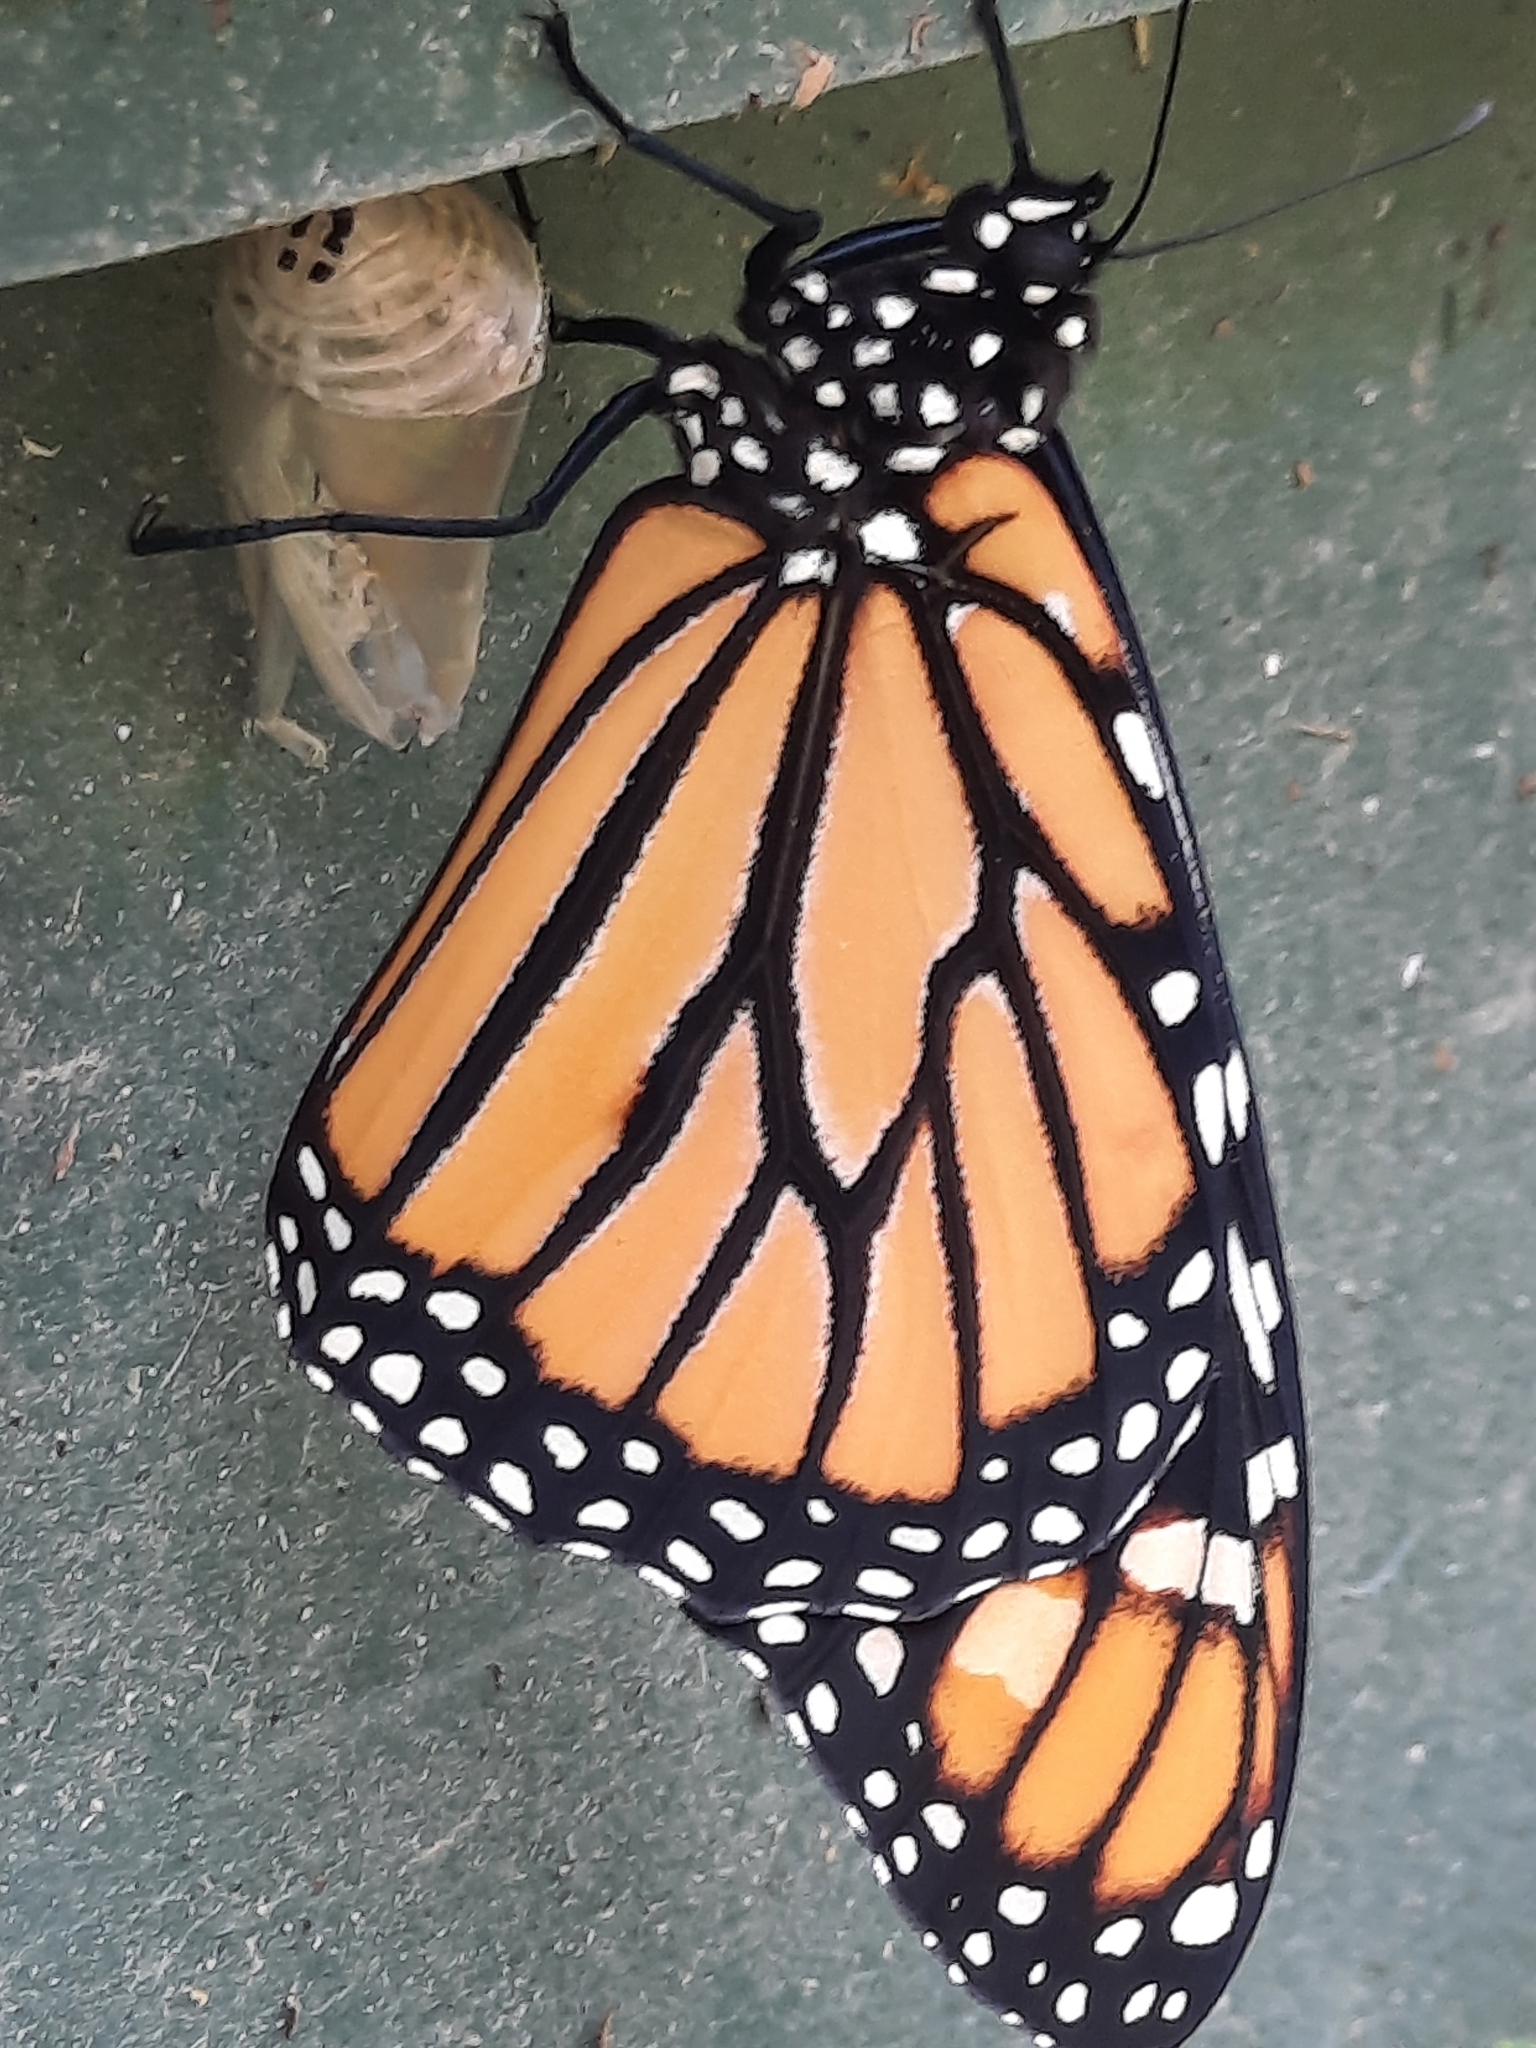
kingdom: Animalia
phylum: Arthropoda
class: Insecta
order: Lepidoptera
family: Nymphalidae
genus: Danaus
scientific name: Danaus plexippus
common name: Monarch
